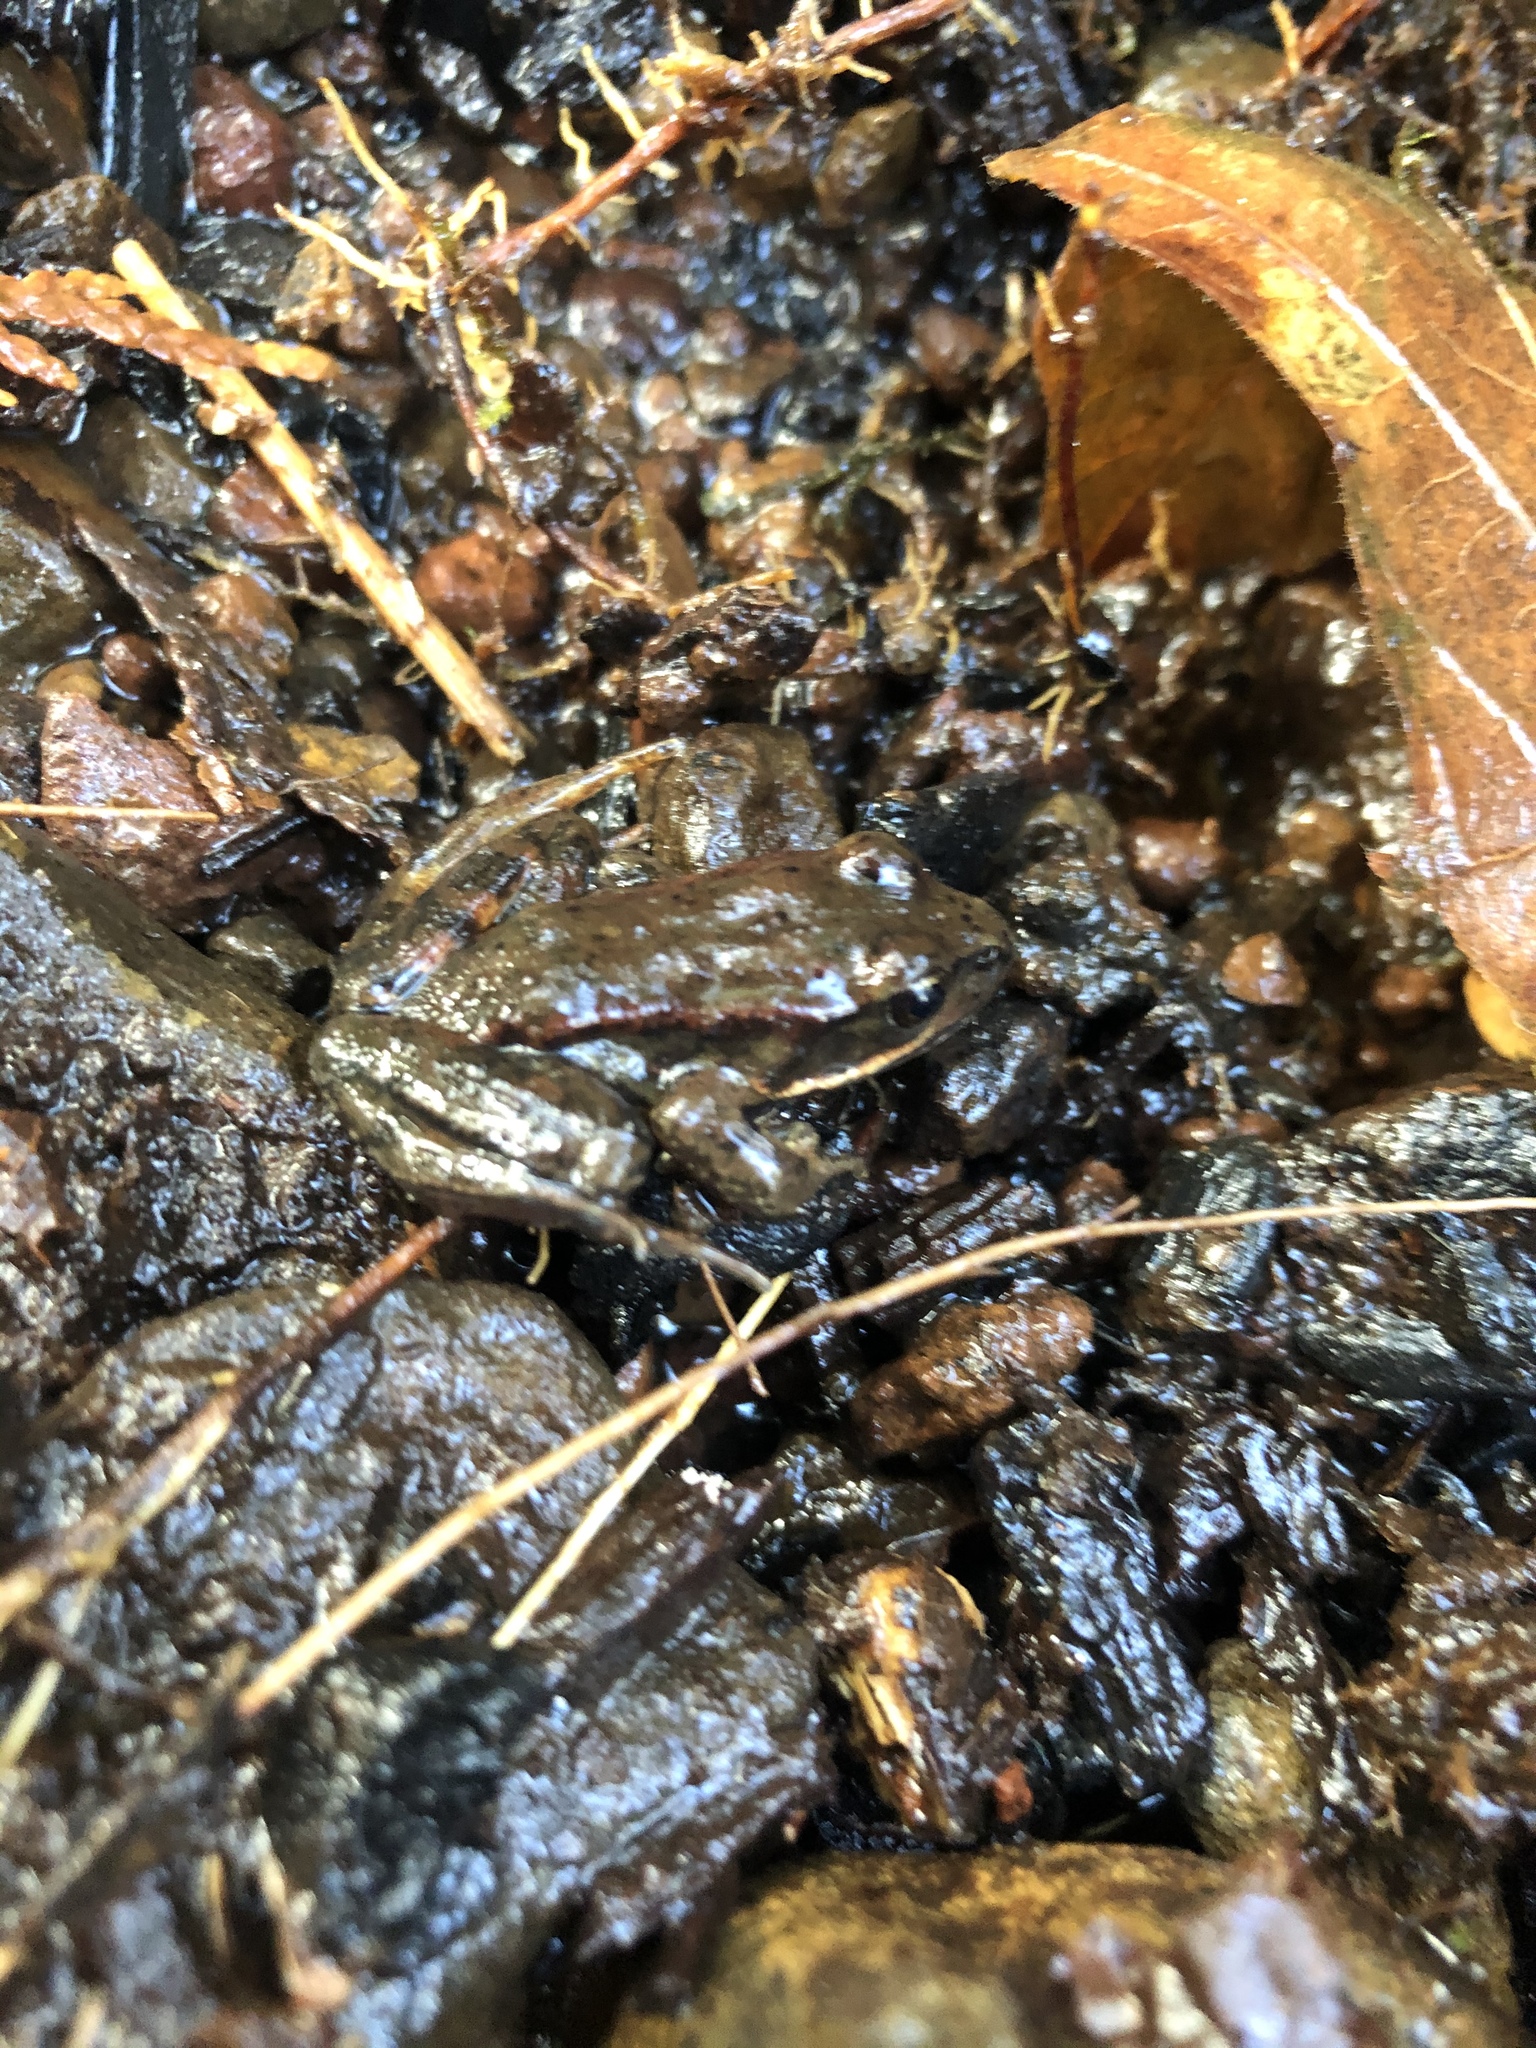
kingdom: Animalia
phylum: Chordata
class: Amphibia
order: Anura
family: Ranidae
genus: Rana
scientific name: Rana aurora
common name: Red-legged frog
